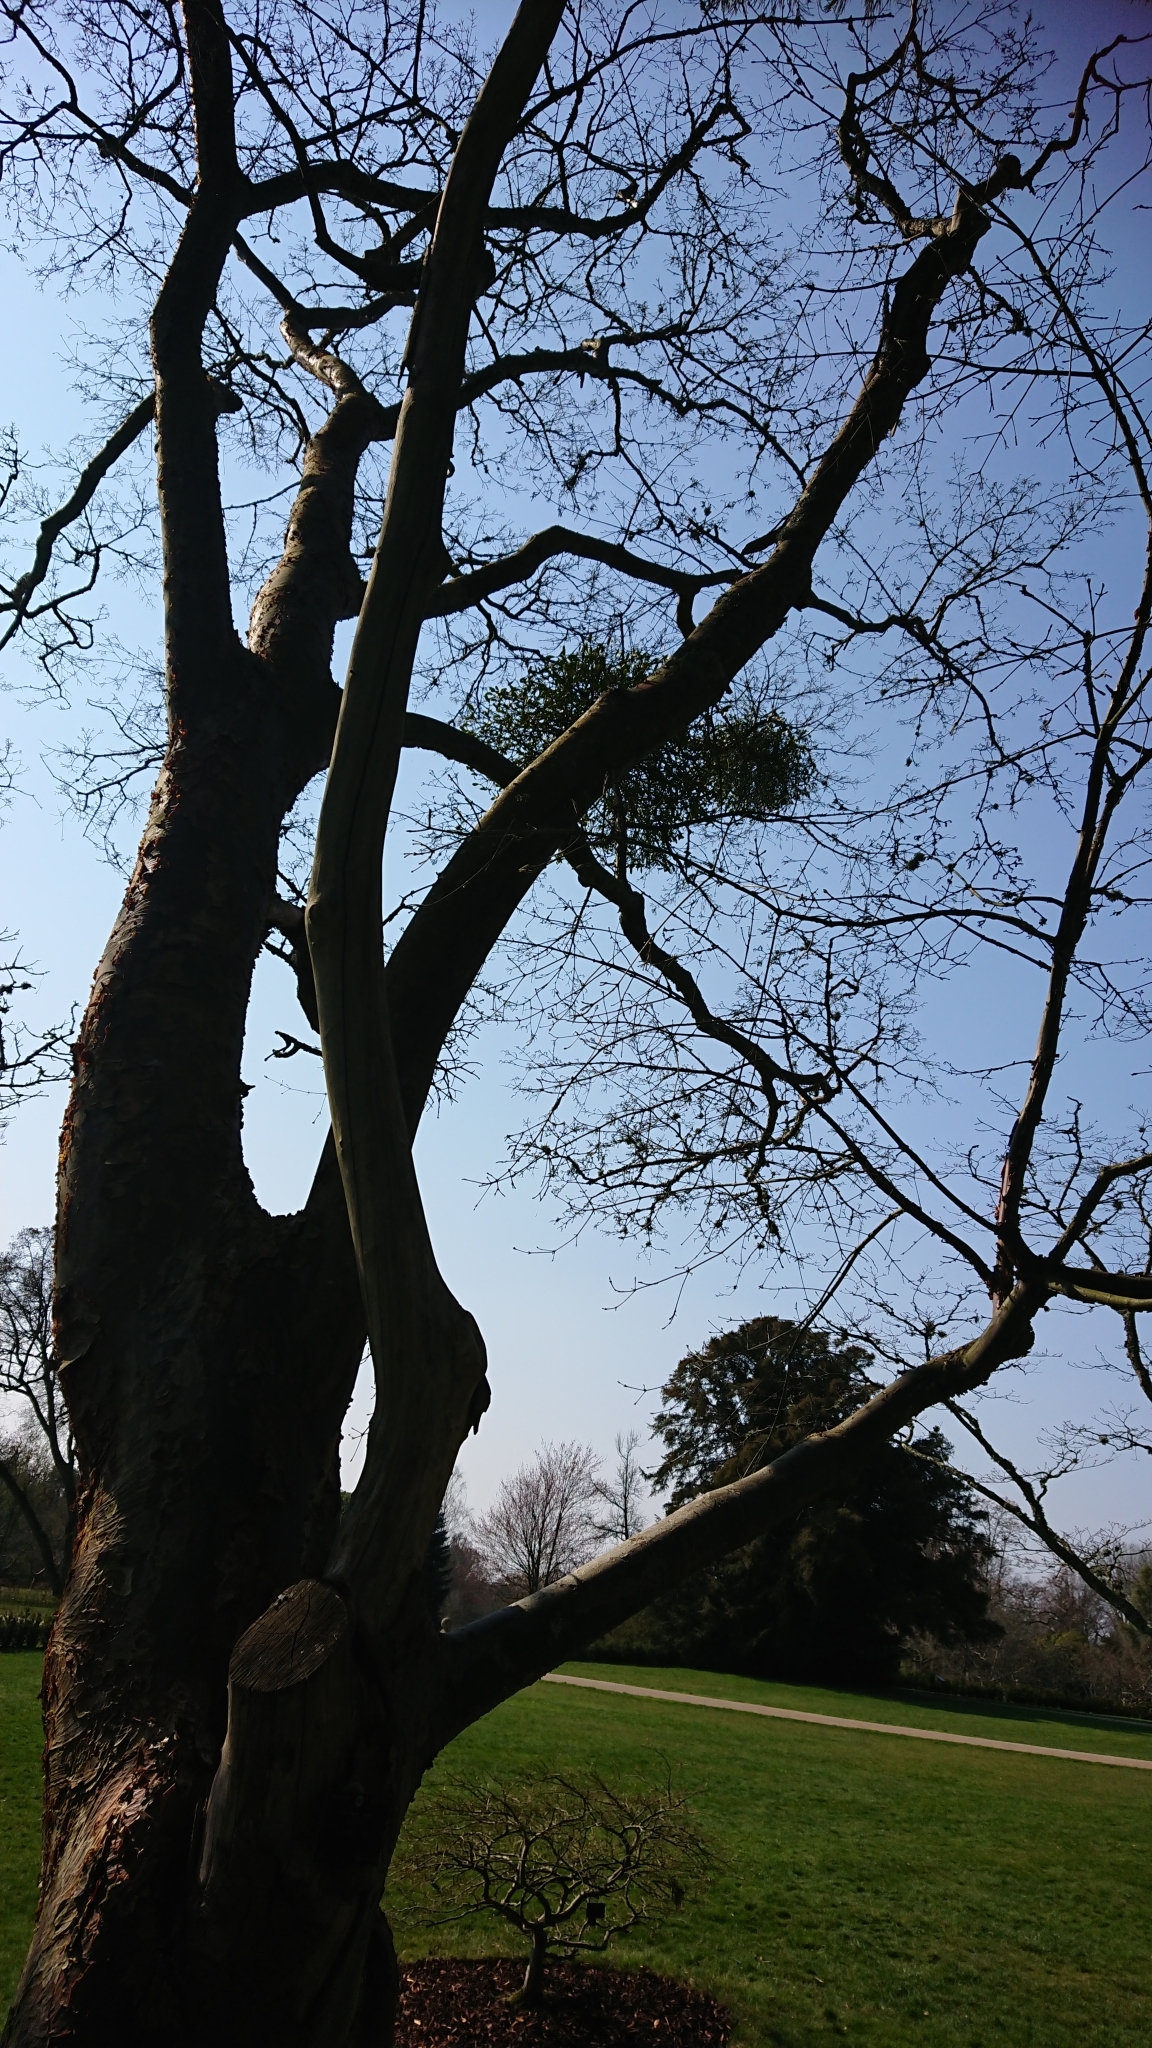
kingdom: Plantae
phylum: Tracheophyta
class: Magnoliopsida
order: Santalales
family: Viscaceae
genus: Viscum
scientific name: Viscum album
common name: Mistletoe
